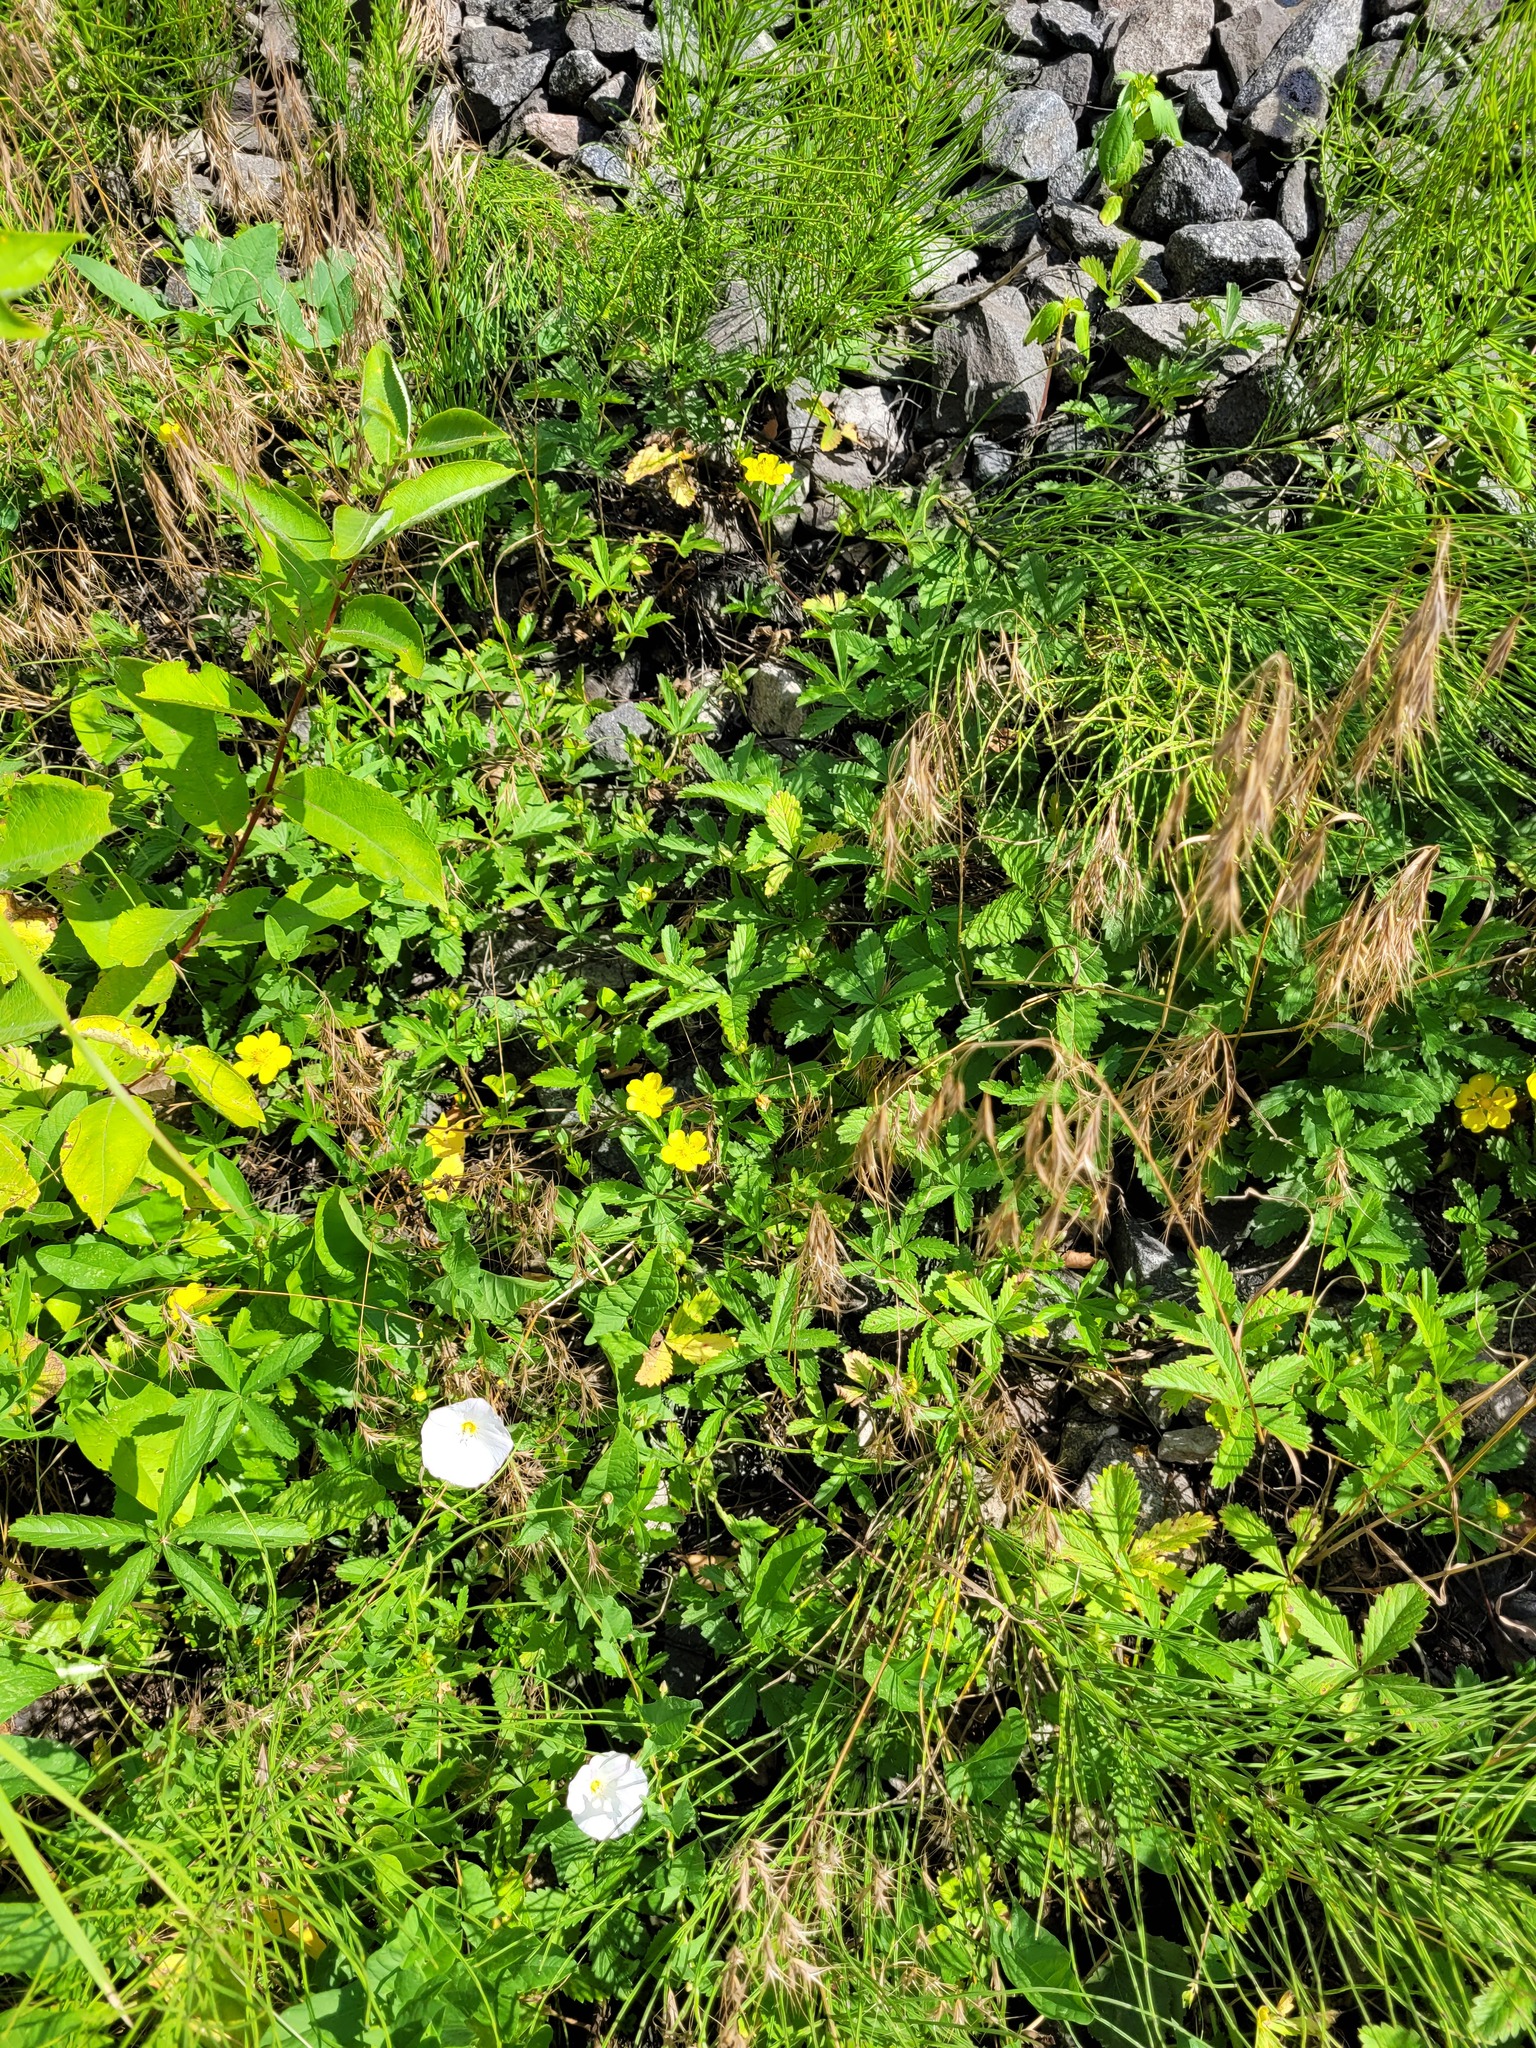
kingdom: Plantae
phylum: Tracheophyta
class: Magnoliopsida
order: Rosales
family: Rosaceae
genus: Potentilla
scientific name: Potentilla reptans
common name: Creeping cinquefoil
